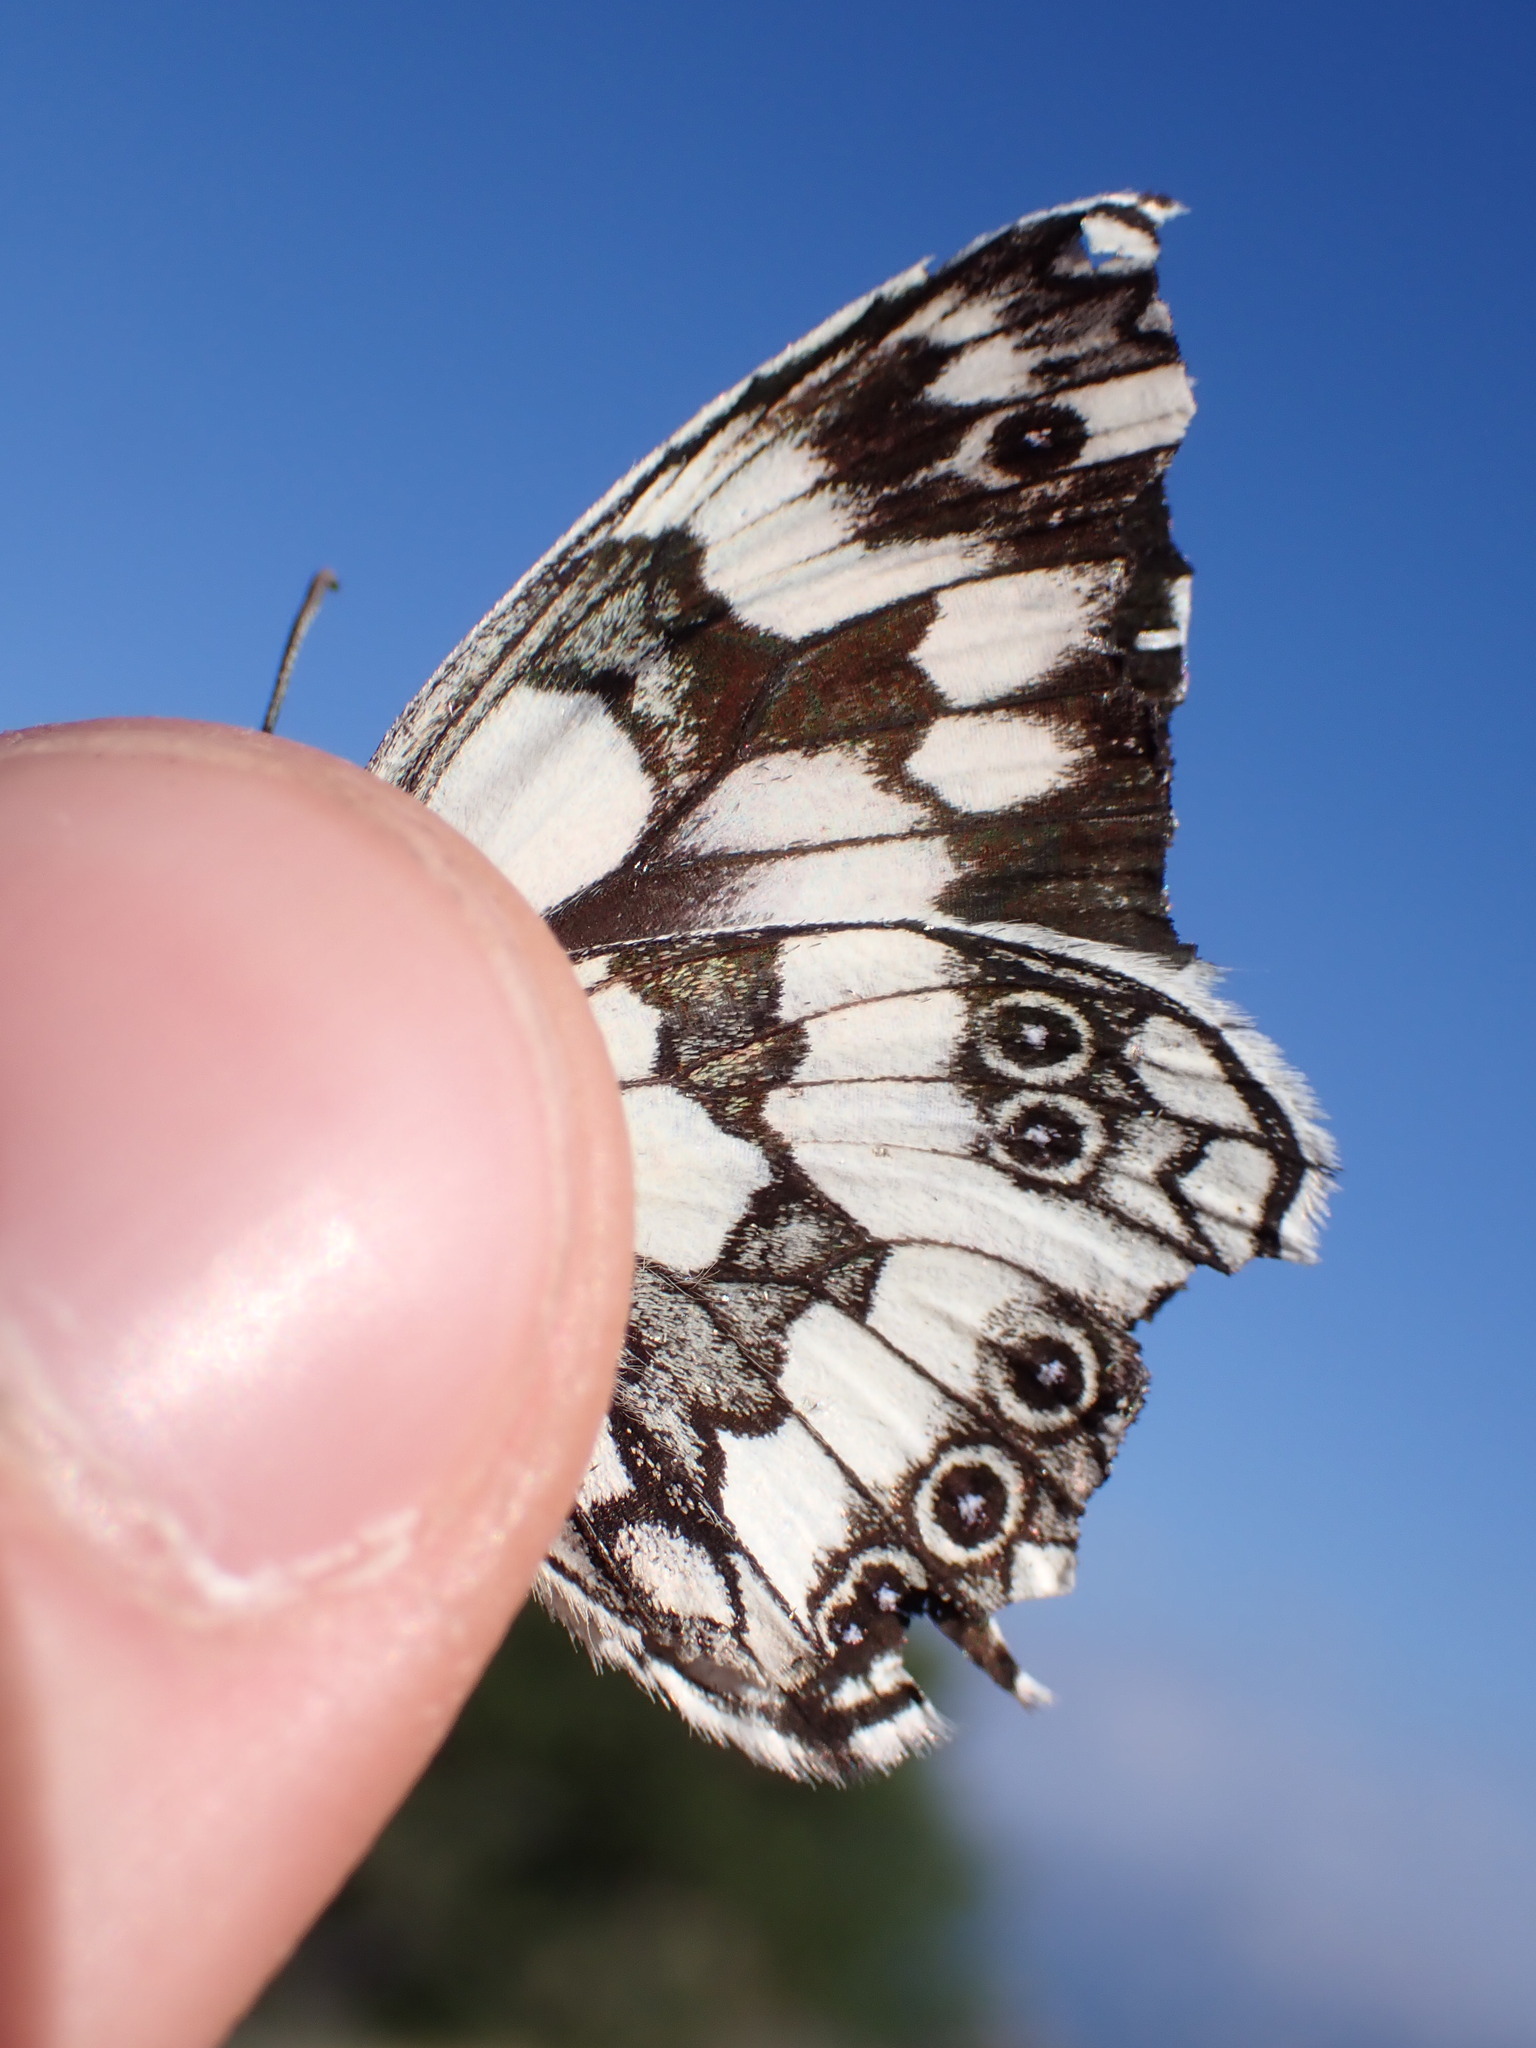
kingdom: Animalia
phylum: Arthropoda
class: Insecta
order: Lepidoptera
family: Nymphalidae
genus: Melanargia
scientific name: Melanargia galathea
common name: Marbled white
